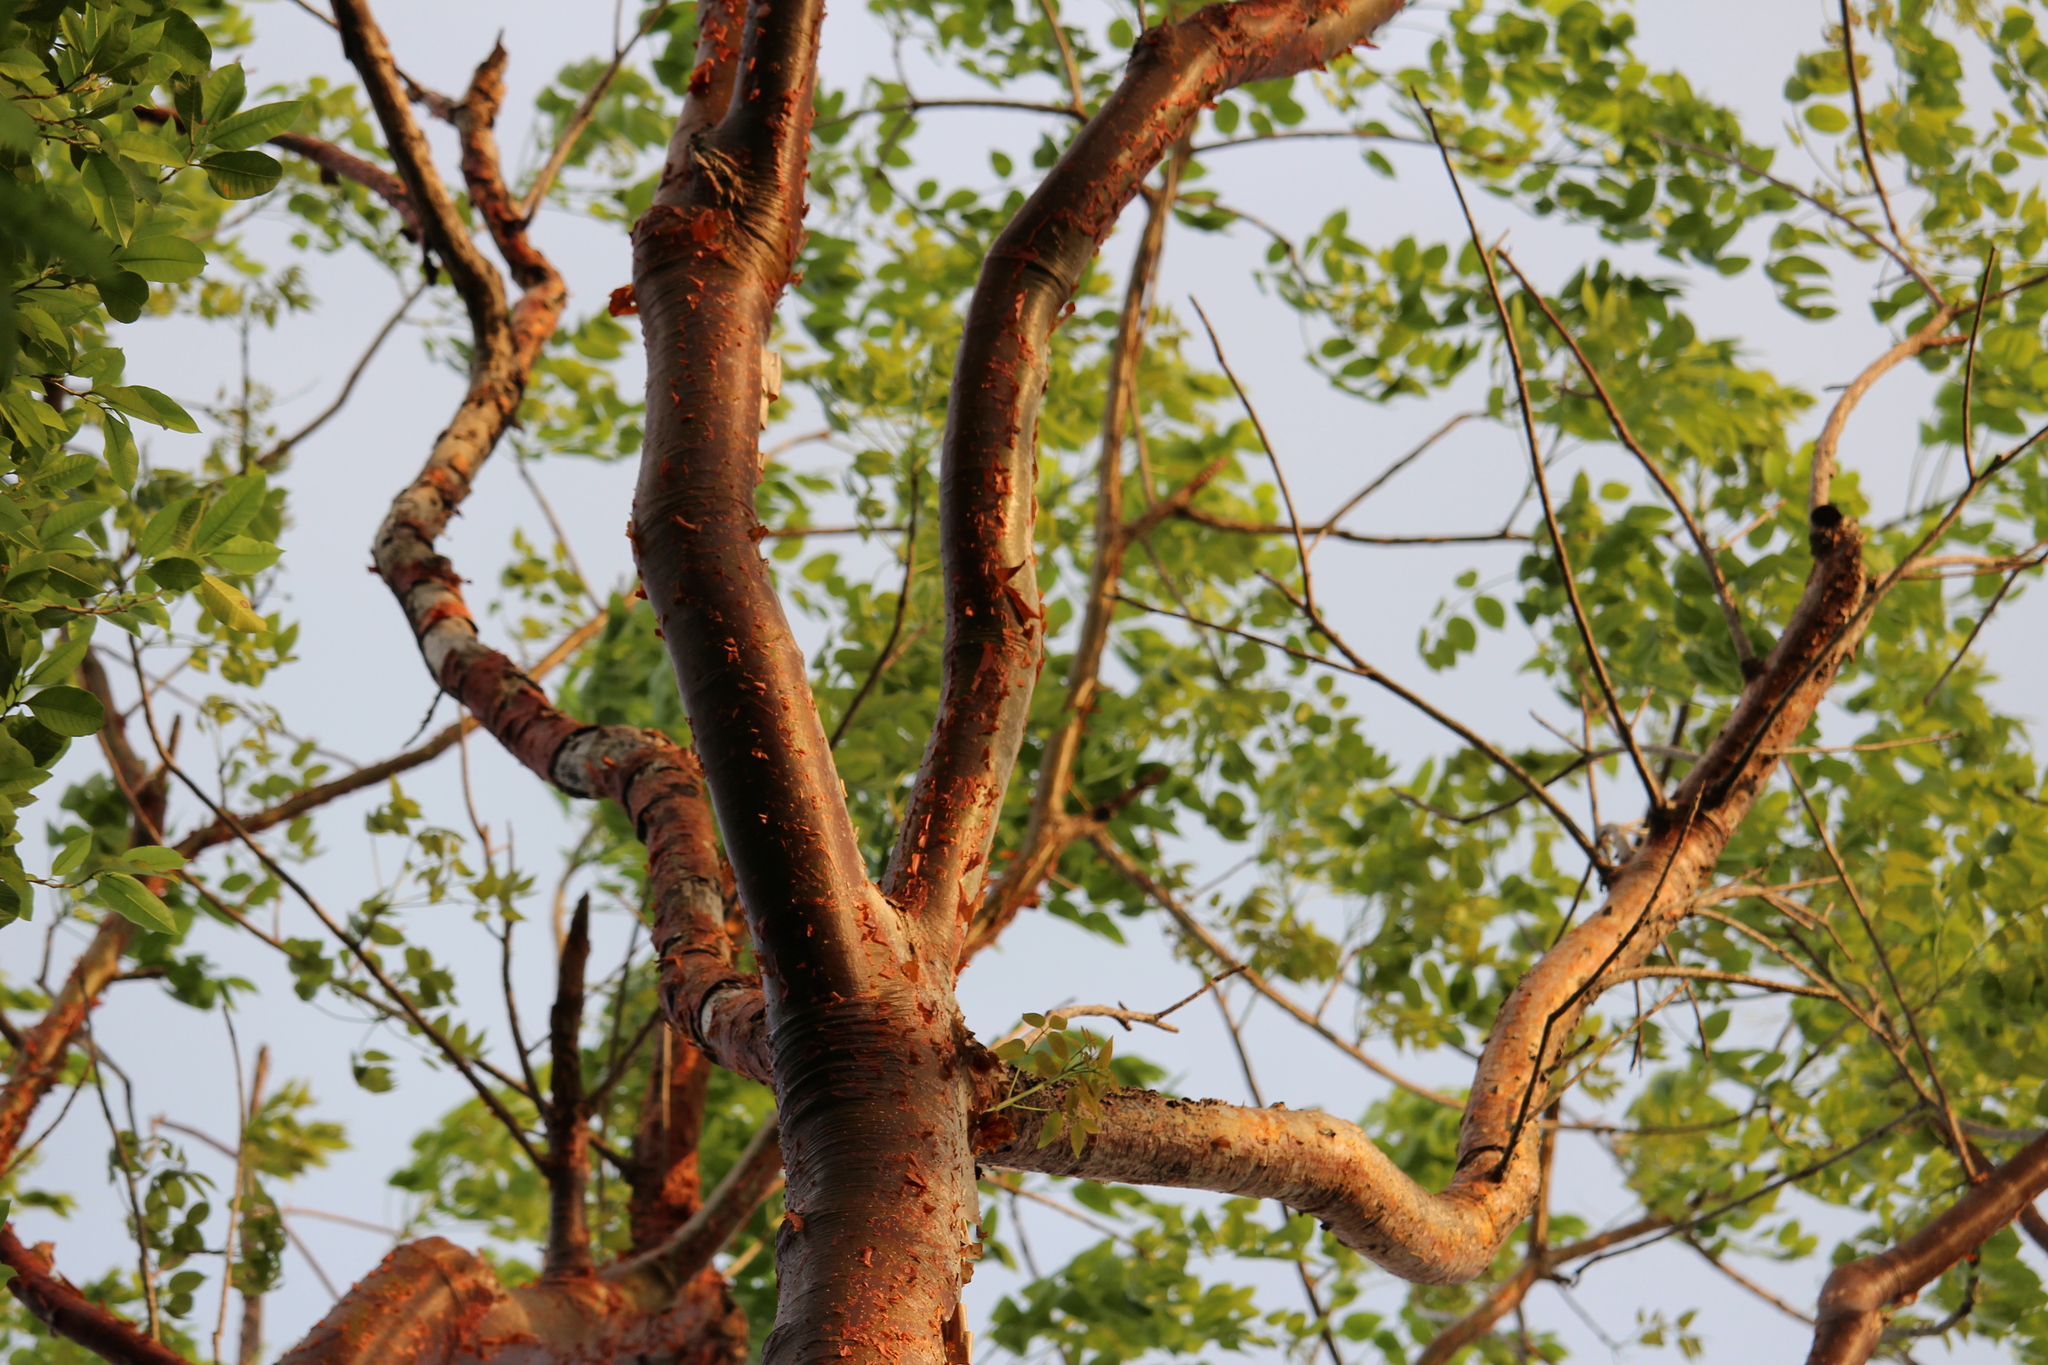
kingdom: Plantae
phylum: Tracheophyta
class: Magnoliopsida
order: Sapindales
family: Burseraceae
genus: Bursera
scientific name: Bursera simaruba
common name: Turpentine tree
